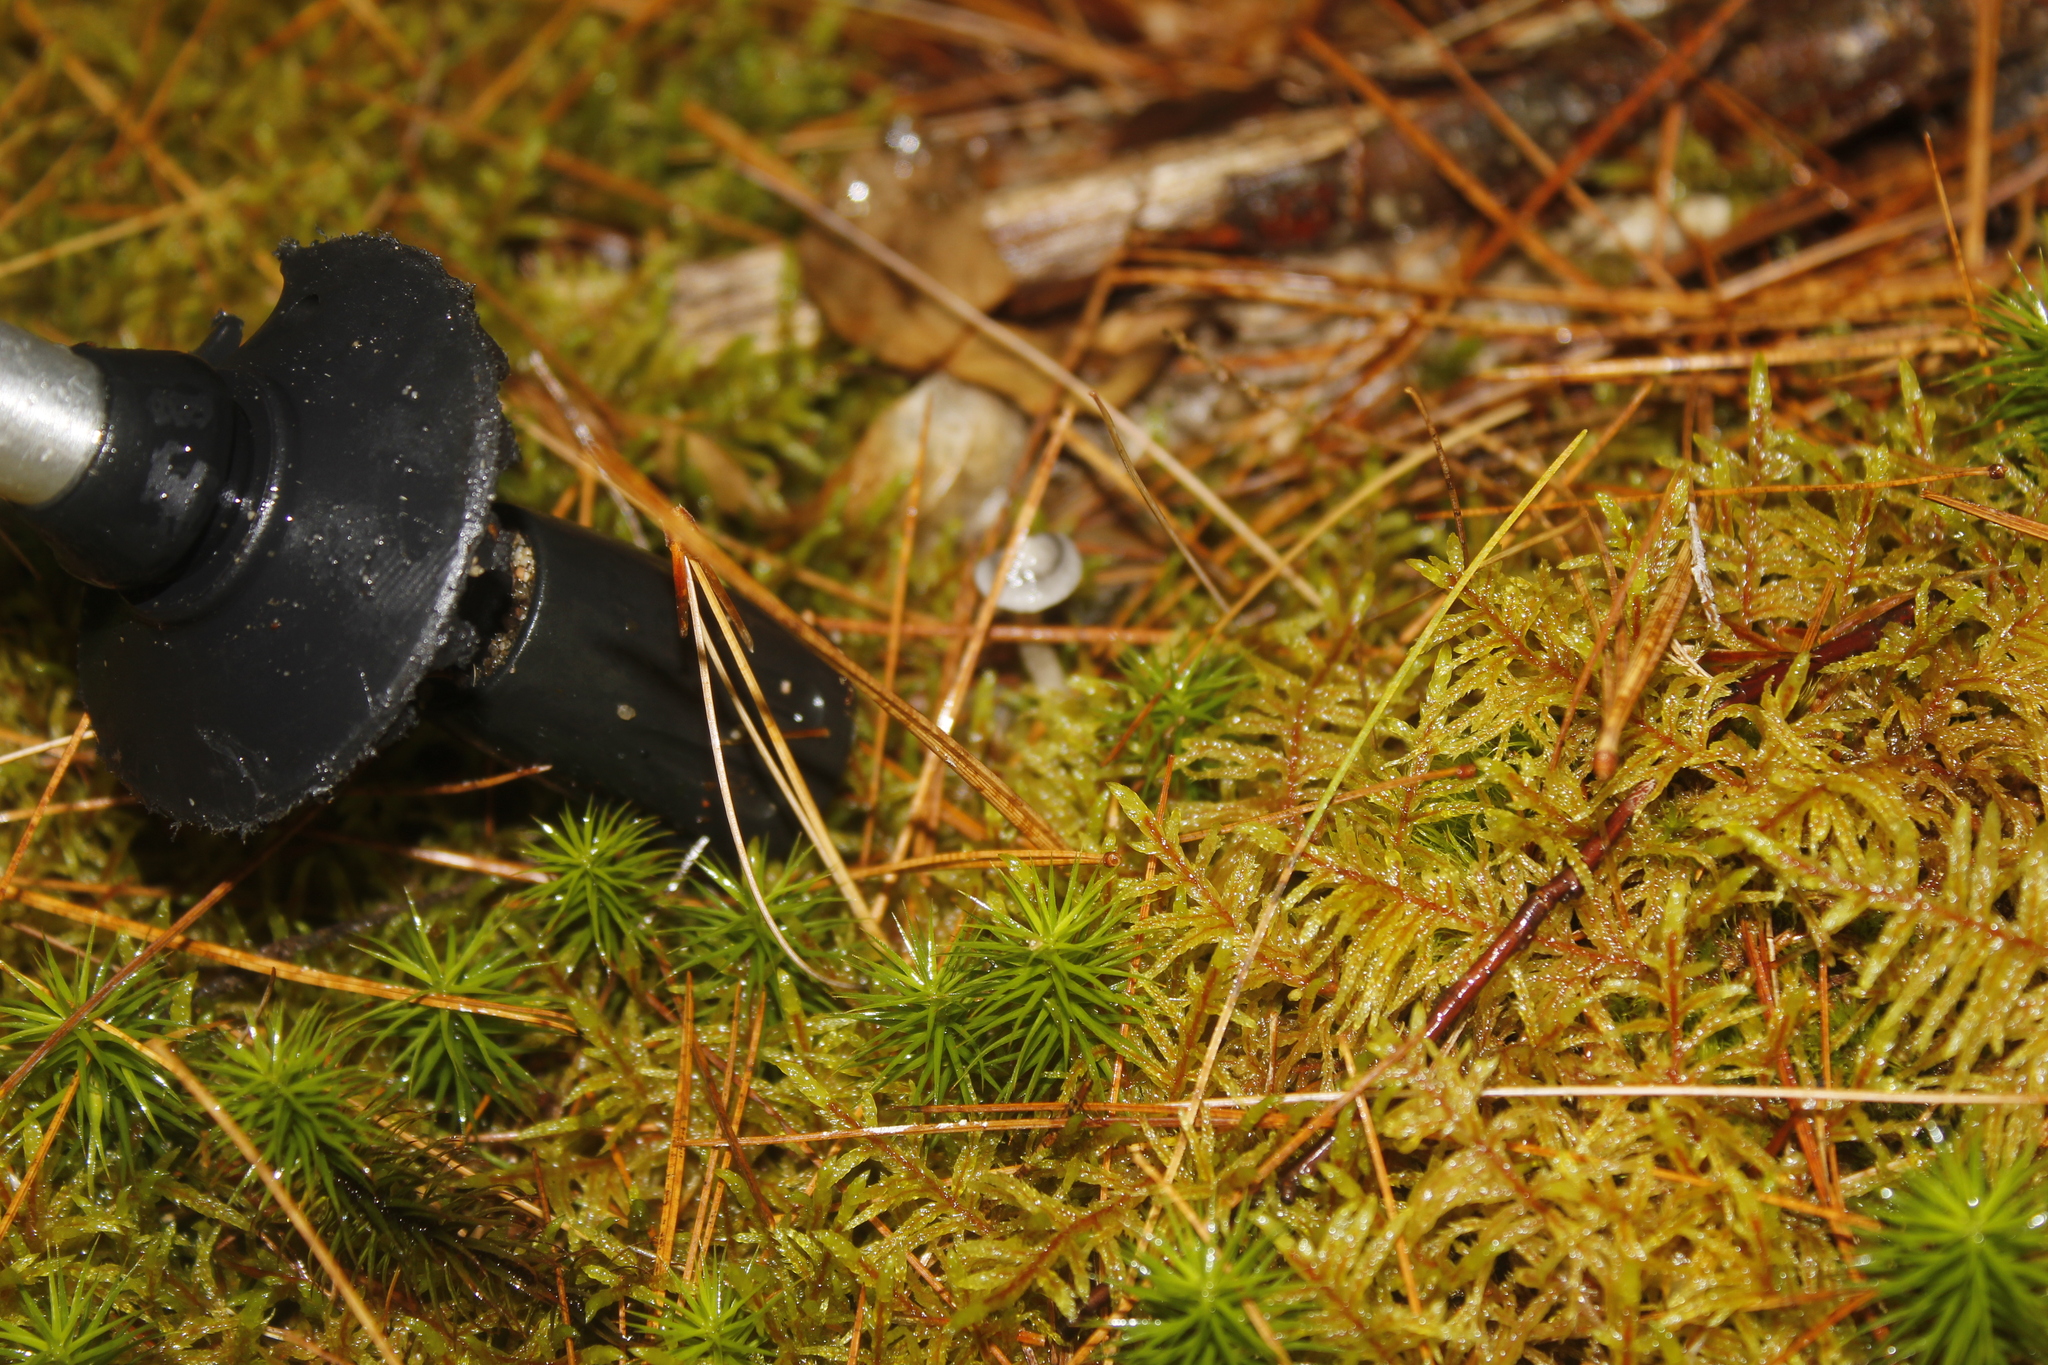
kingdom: Fungi
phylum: Basidiomycota
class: Agaricomycetes
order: Agaricales
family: Hygrophoraceae
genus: Cantharellula
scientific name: Cantharellula umbonata
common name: The humpback
